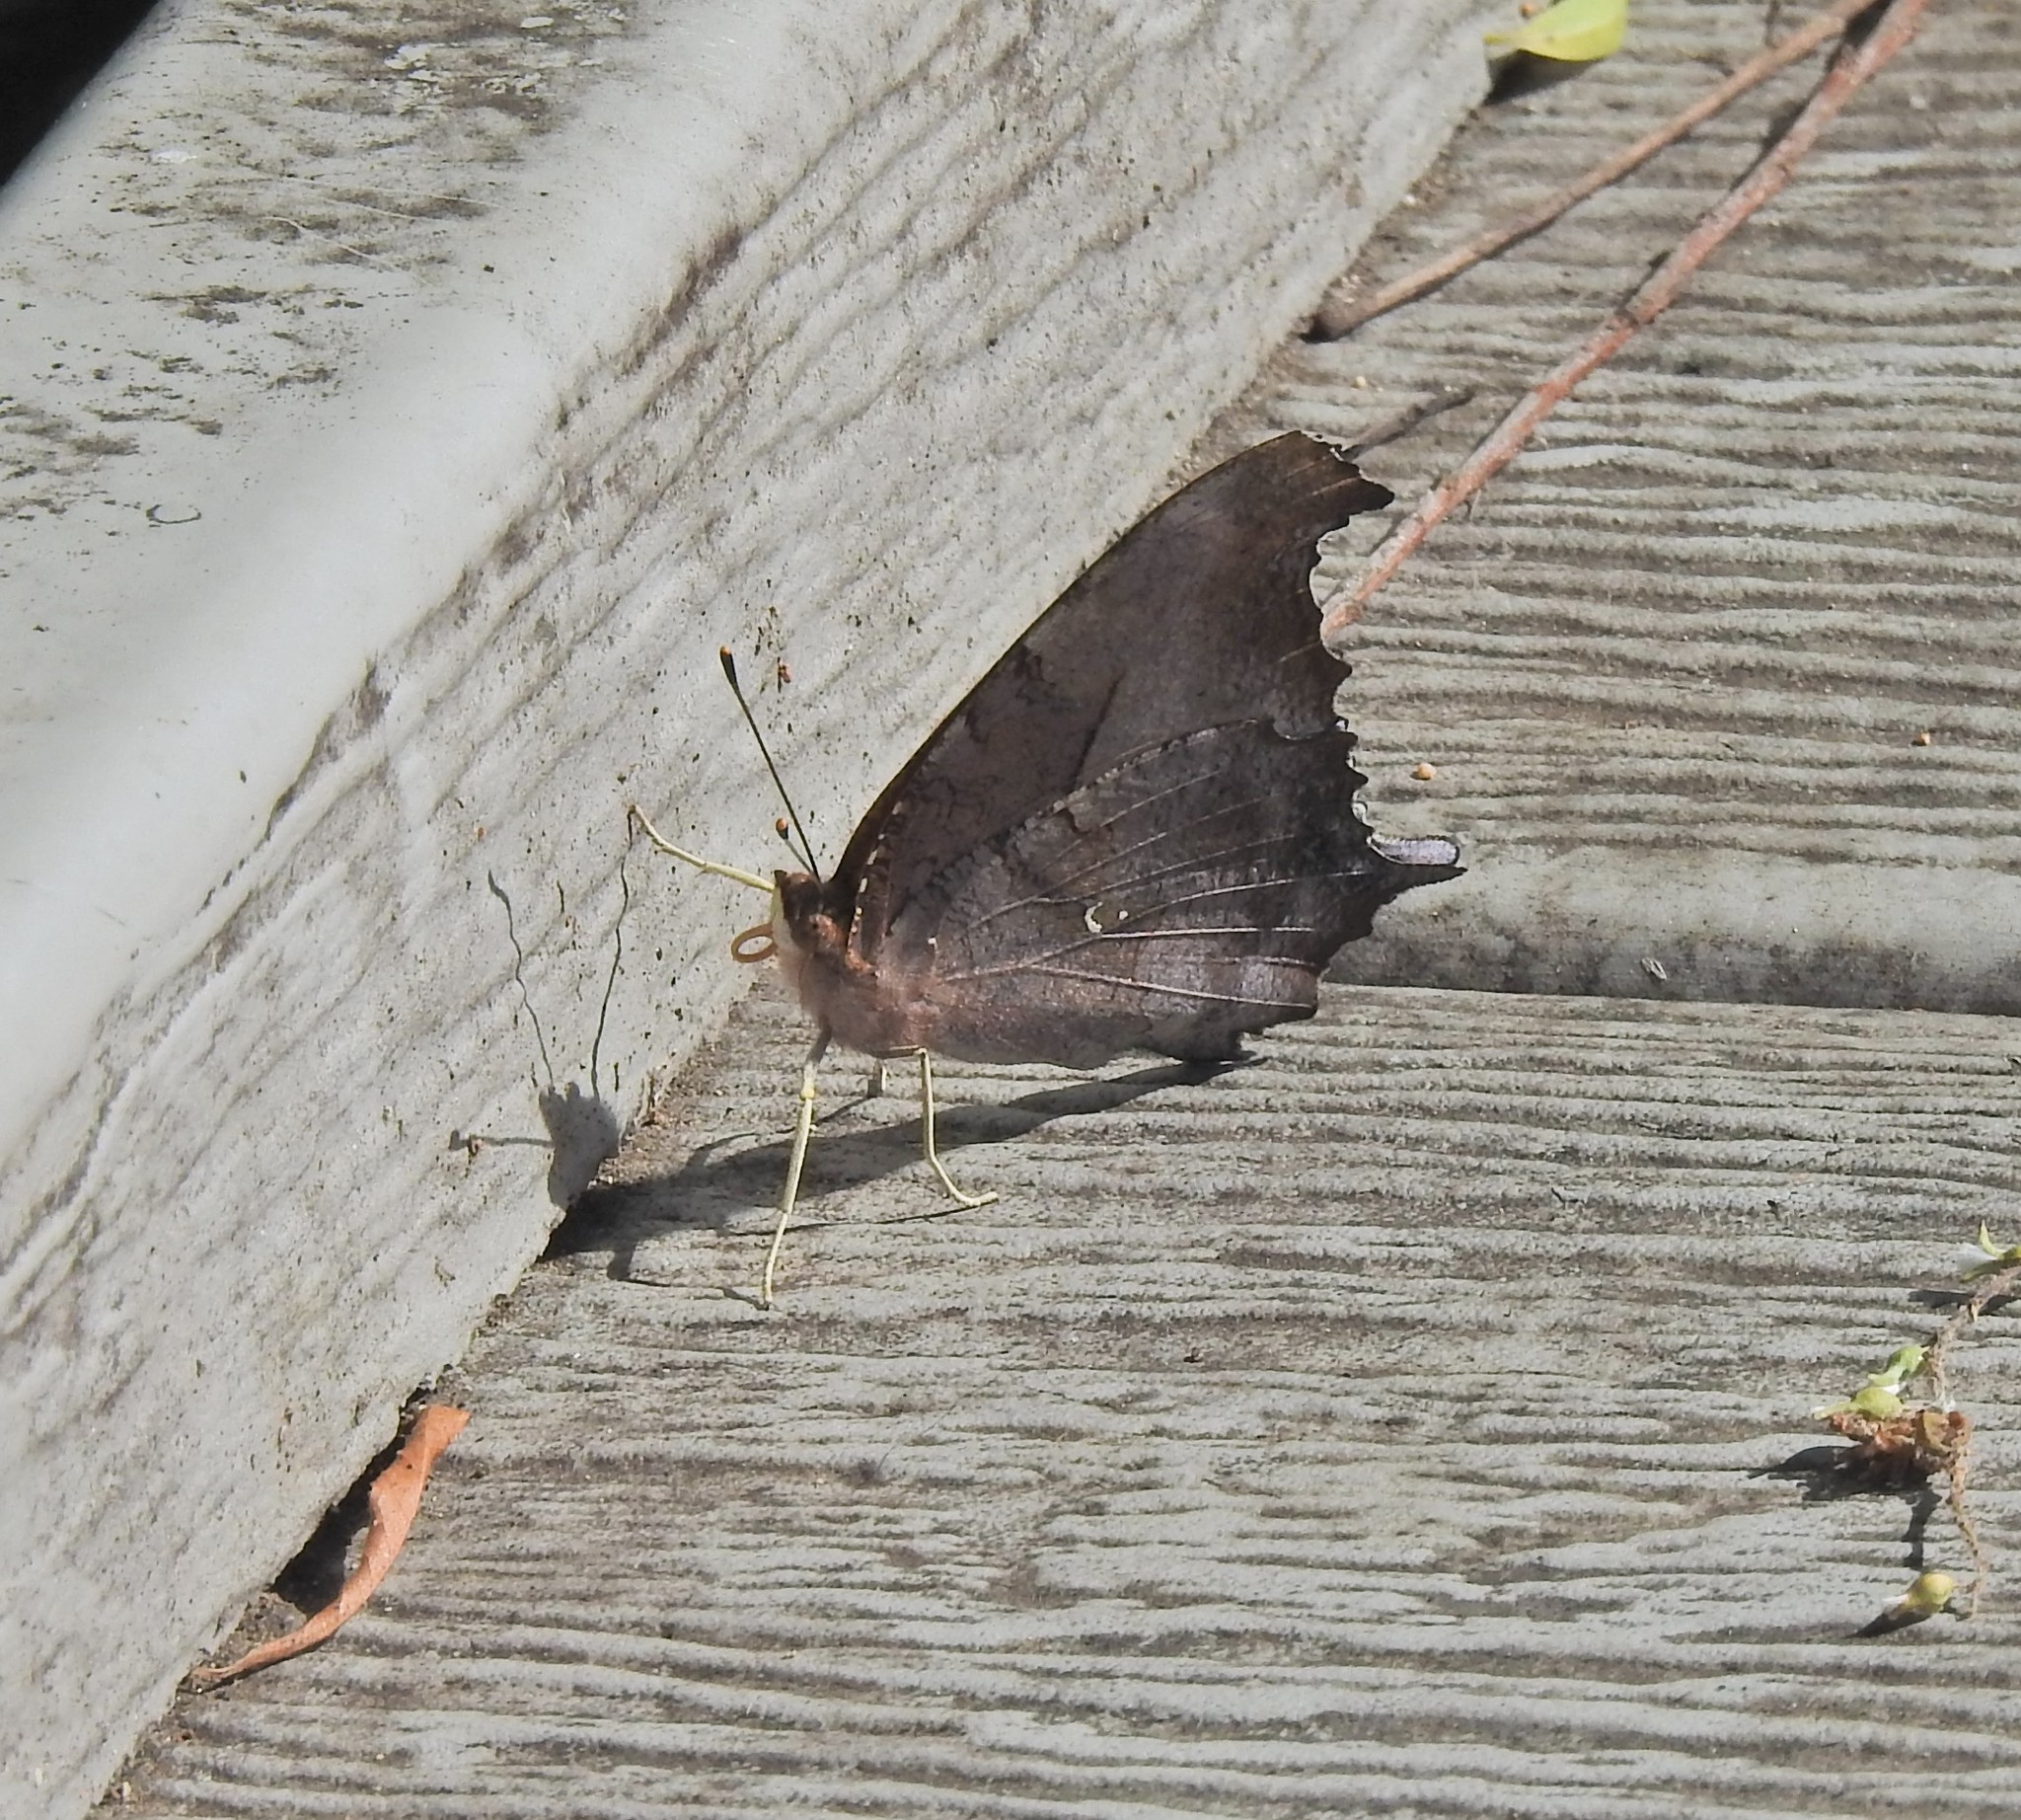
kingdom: Animalia
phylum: Arthropoda
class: Insecta
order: Lepidoptera
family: Nymphalidae
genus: Polygonia
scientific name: Polygonia interrogationis
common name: Question mark
